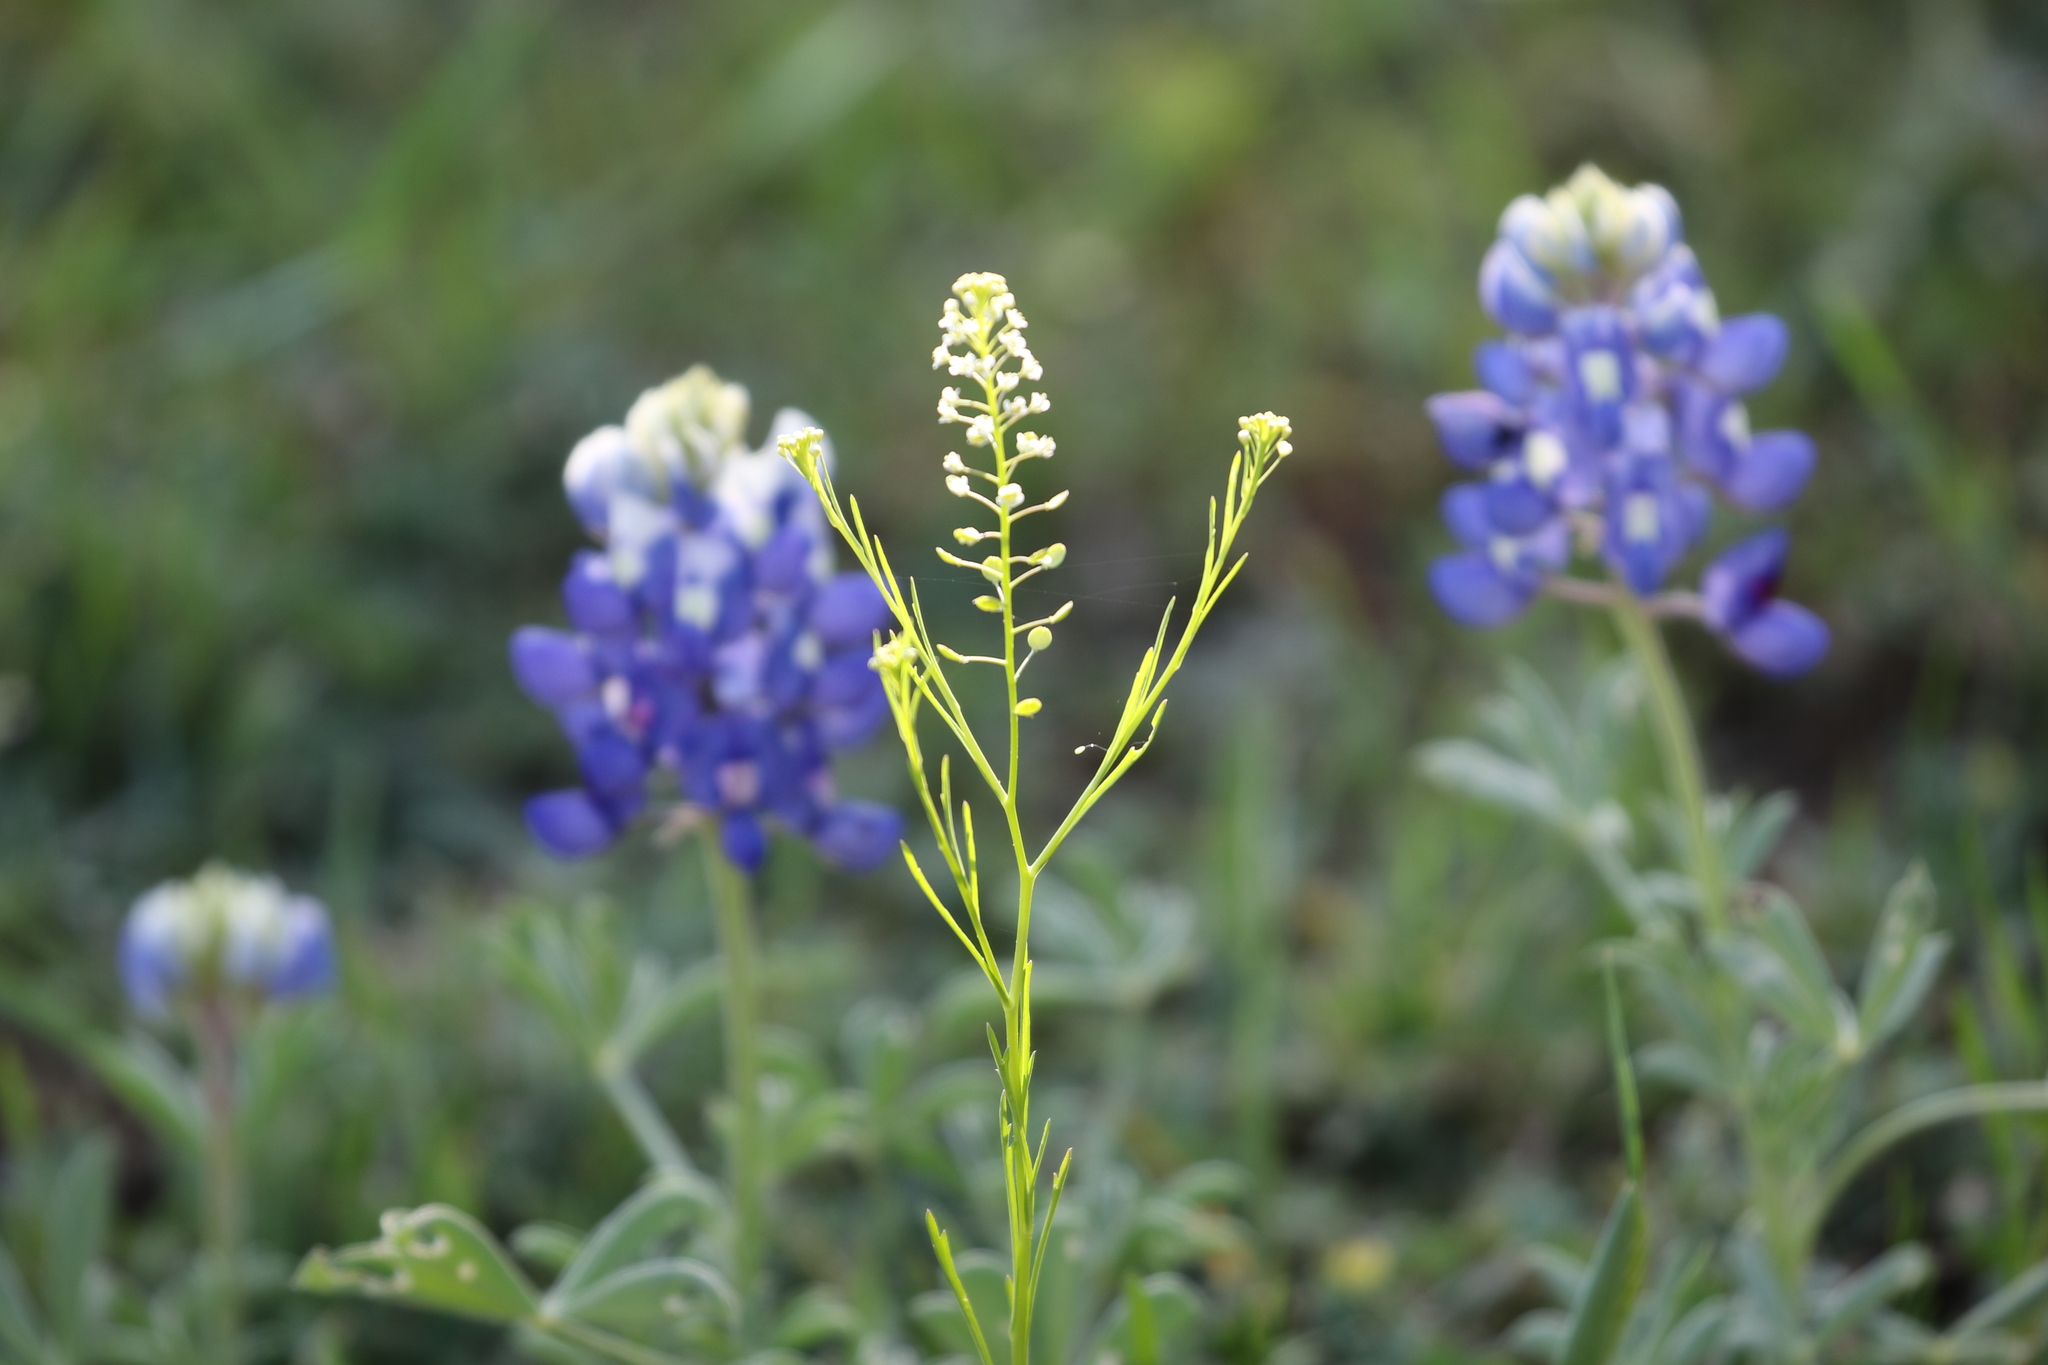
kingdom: Plantae
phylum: Tracheophyta
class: Magnoliopsida
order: Brassicales
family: Brassicaceae
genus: Lepidium
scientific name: Lepidium virginicum
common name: Least pepperwort
